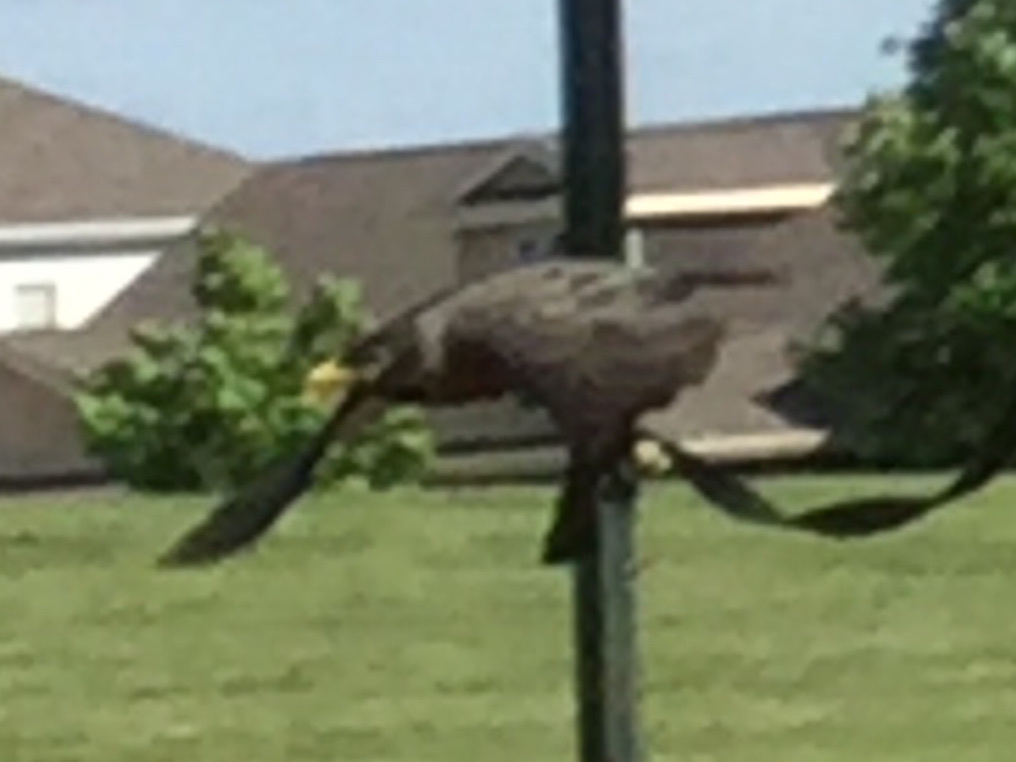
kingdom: Animalia
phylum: Chordata
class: Aves
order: Passeriformes
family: Sturnidae
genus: Sturnus
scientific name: Sturnus vulgaris
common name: Common starling
